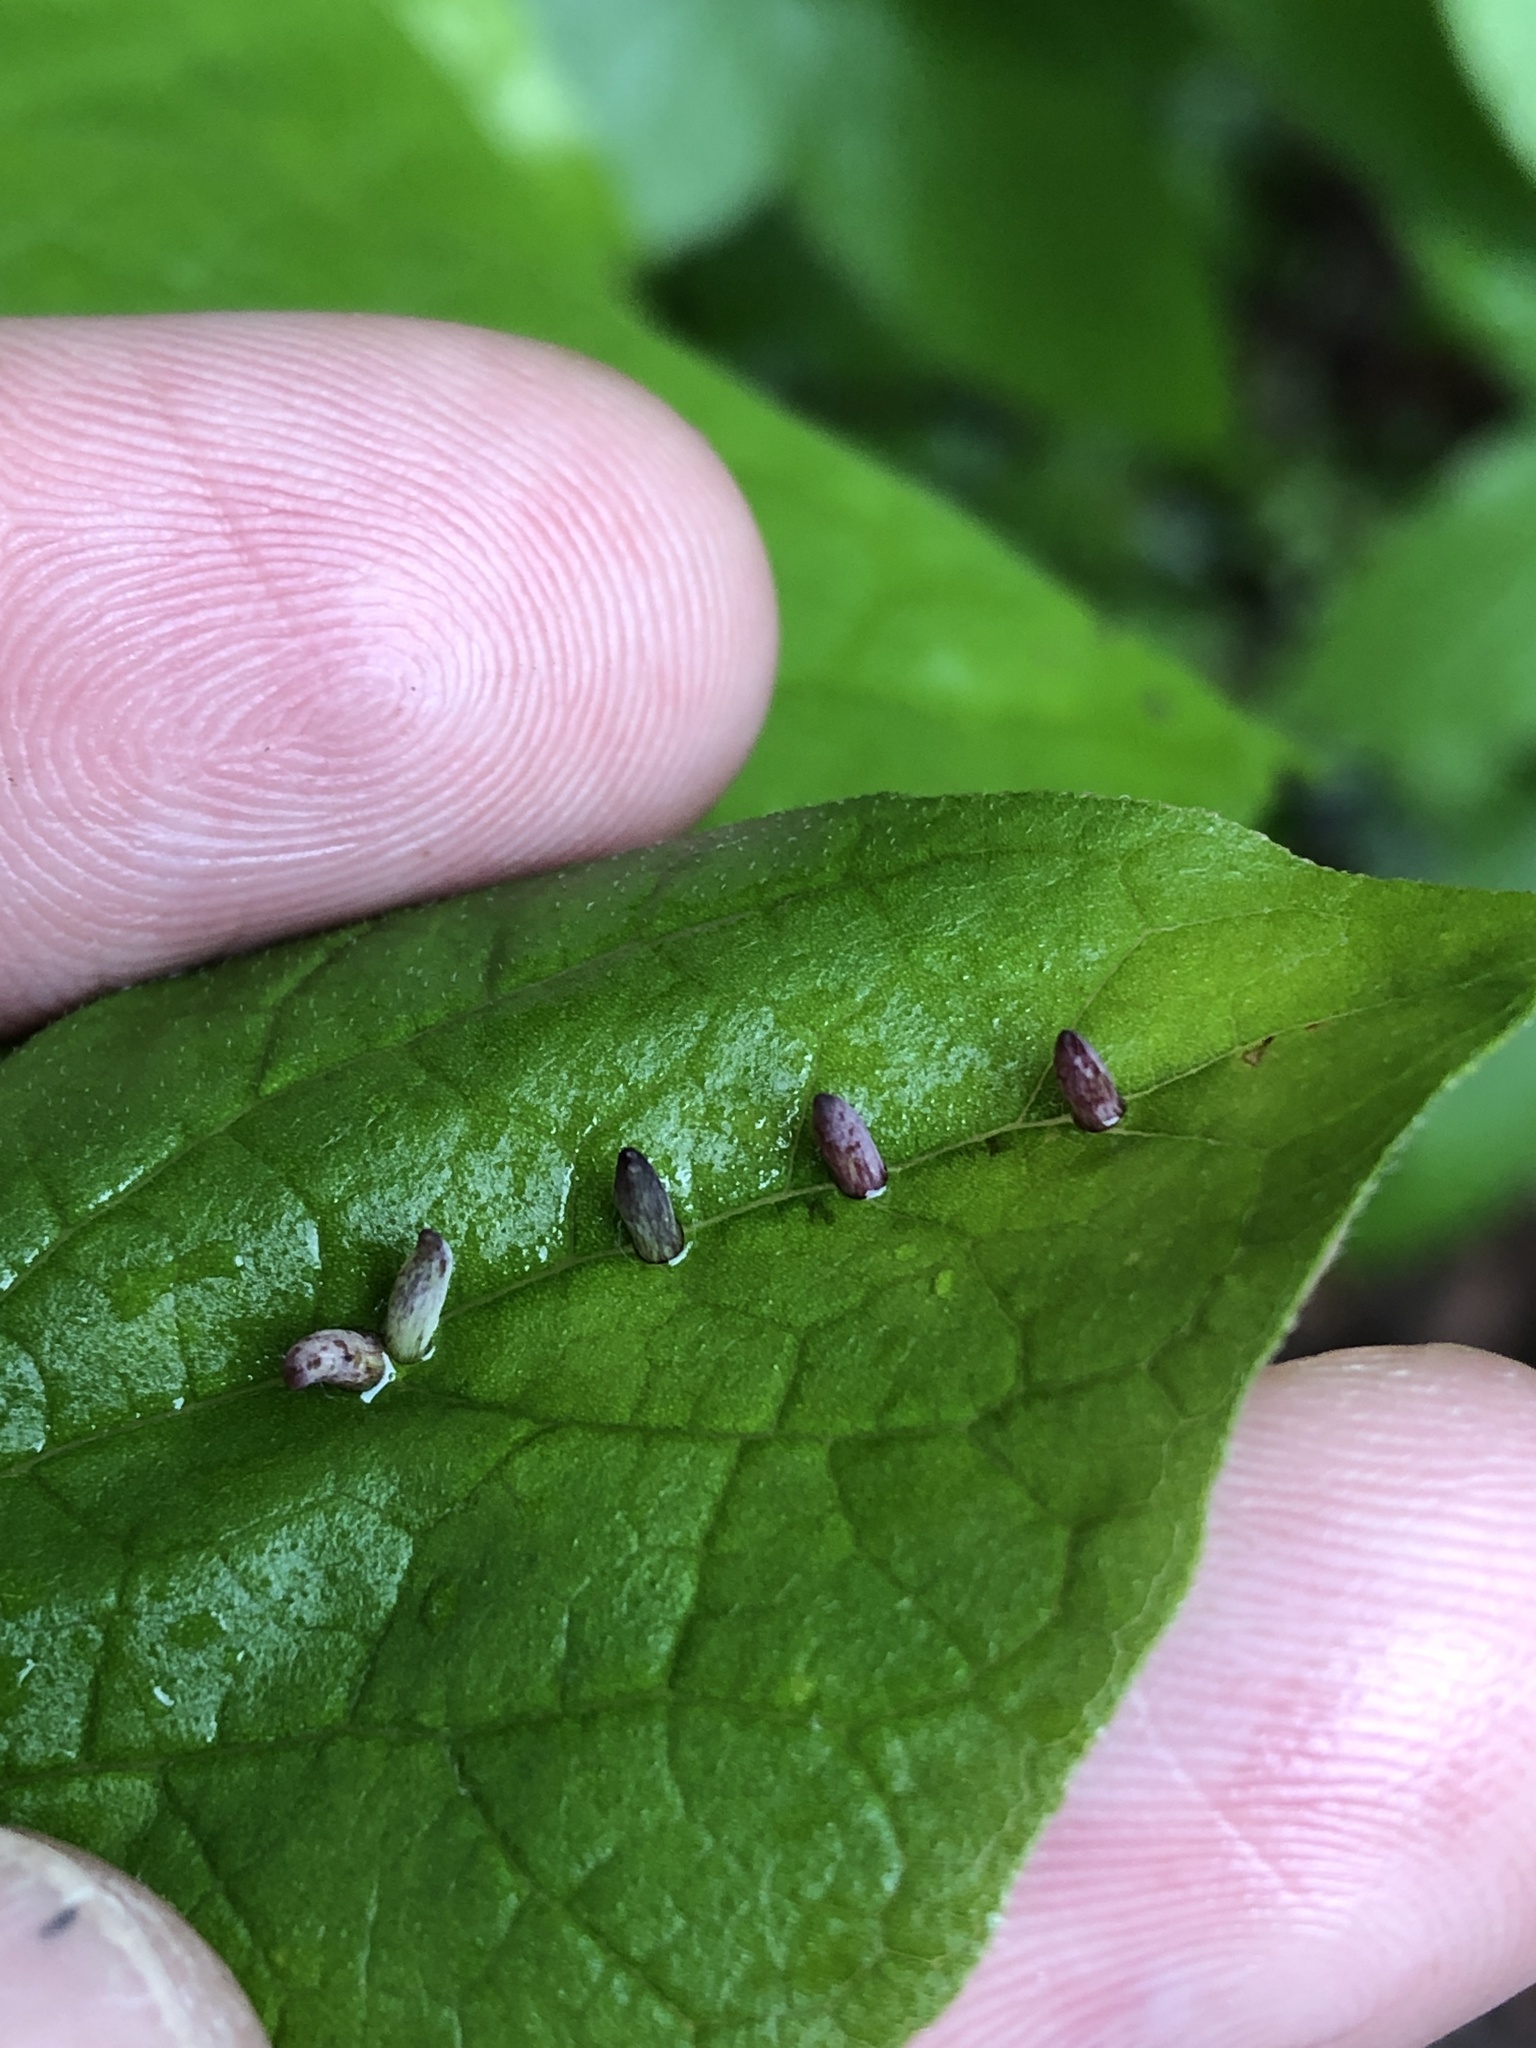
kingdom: Animalia
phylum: Arthropoda
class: Insecta
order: Diptera
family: Cecidomyiidae
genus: Celticecis
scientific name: Celticecis
